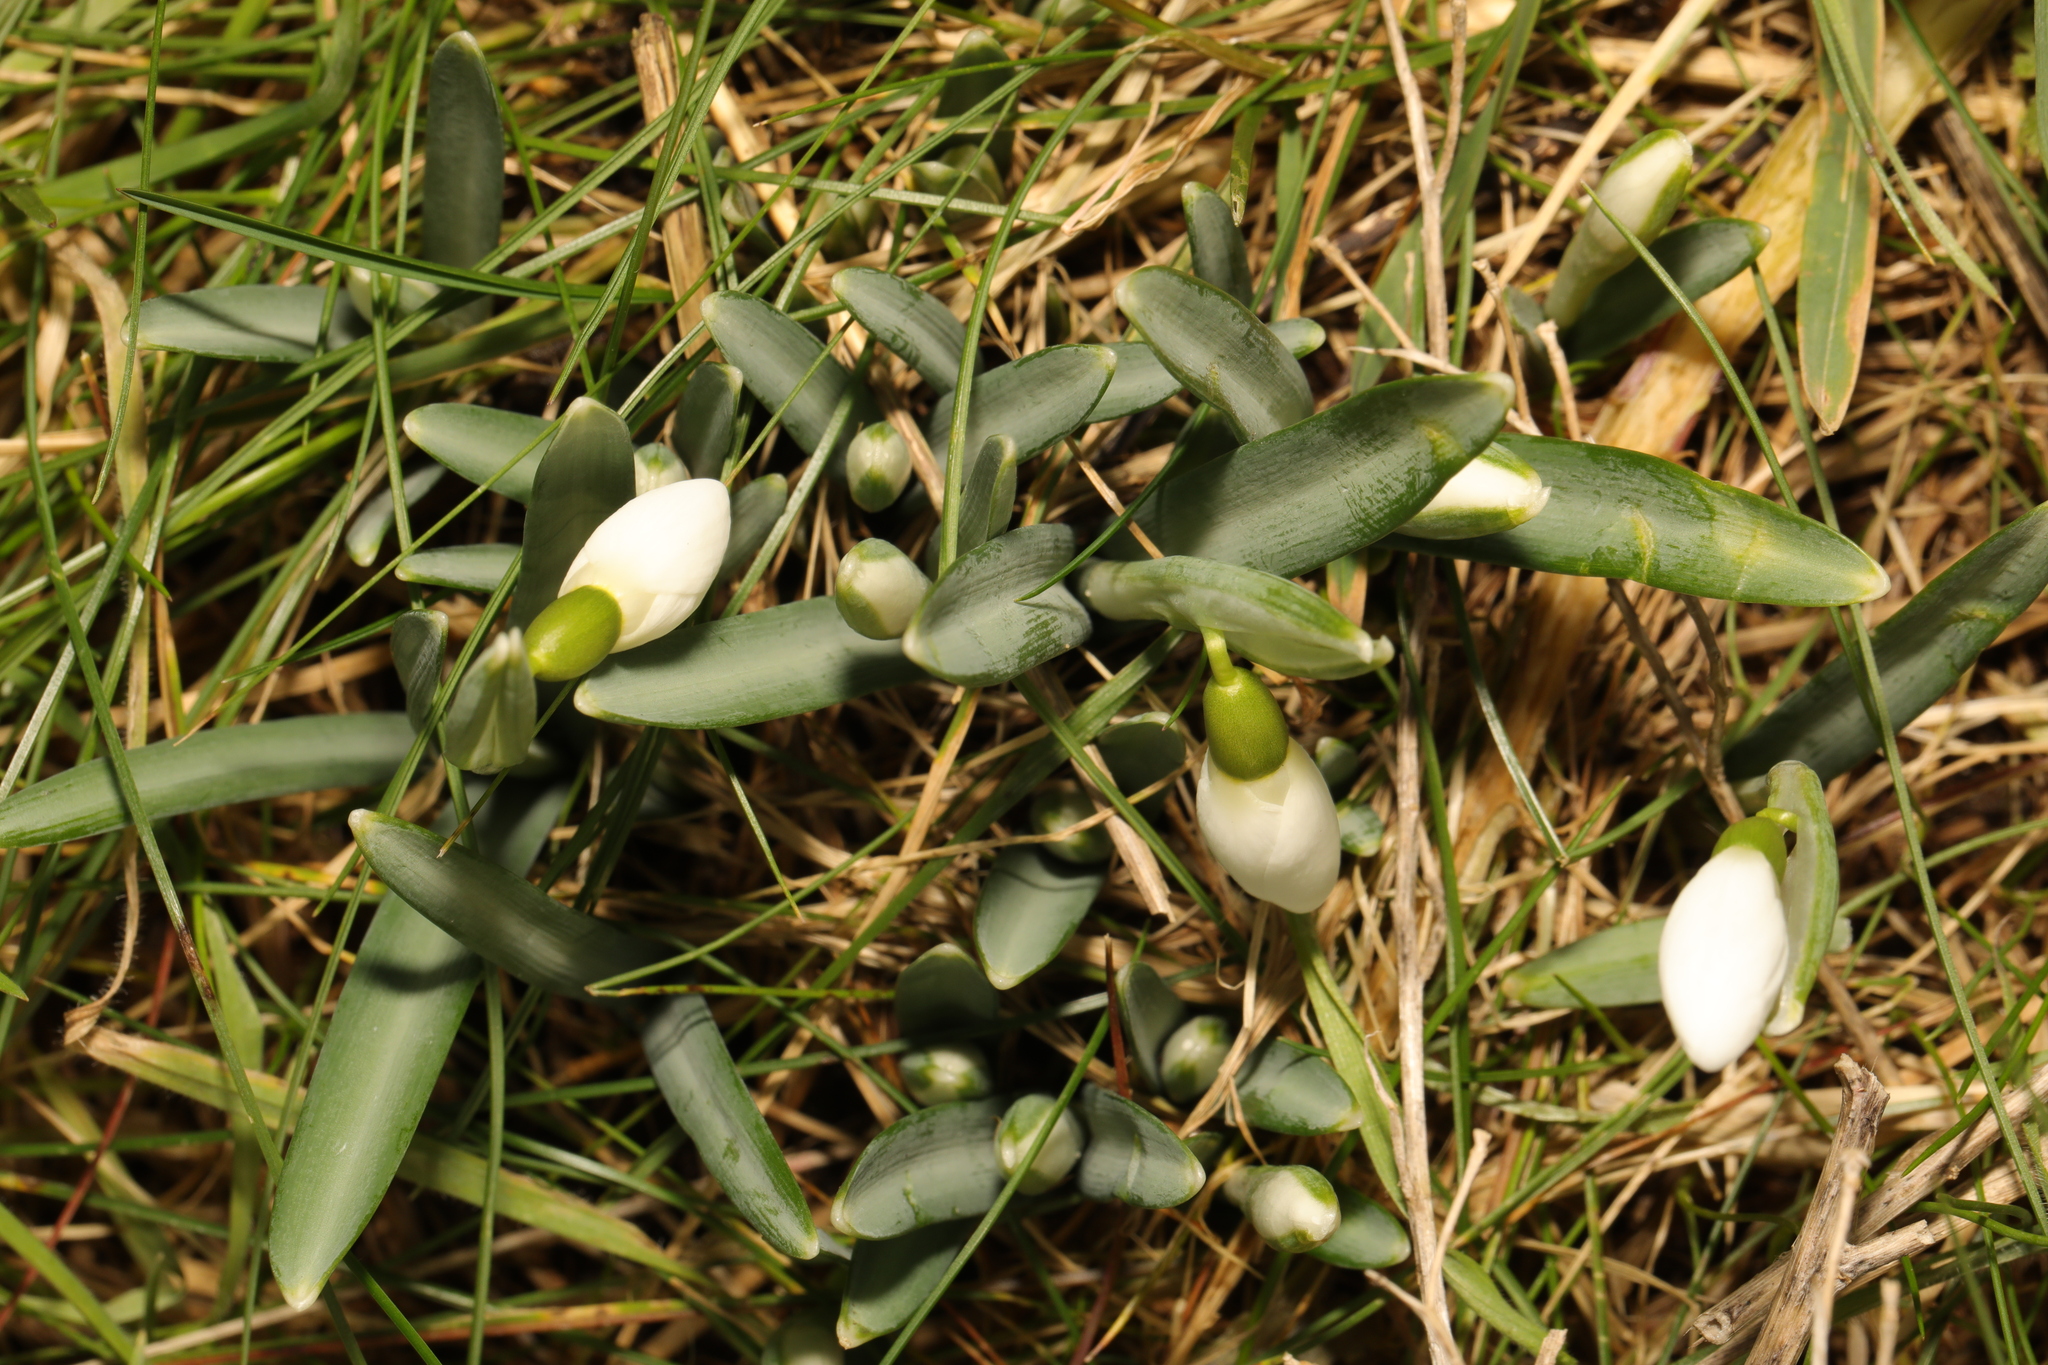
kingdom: Plantae
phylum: Tracheophyta
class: Liliopsida
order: Asparagales
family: Amaryllidaceae
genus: Galanthus
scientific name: Galanthus nivalis
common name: Snowdrop
